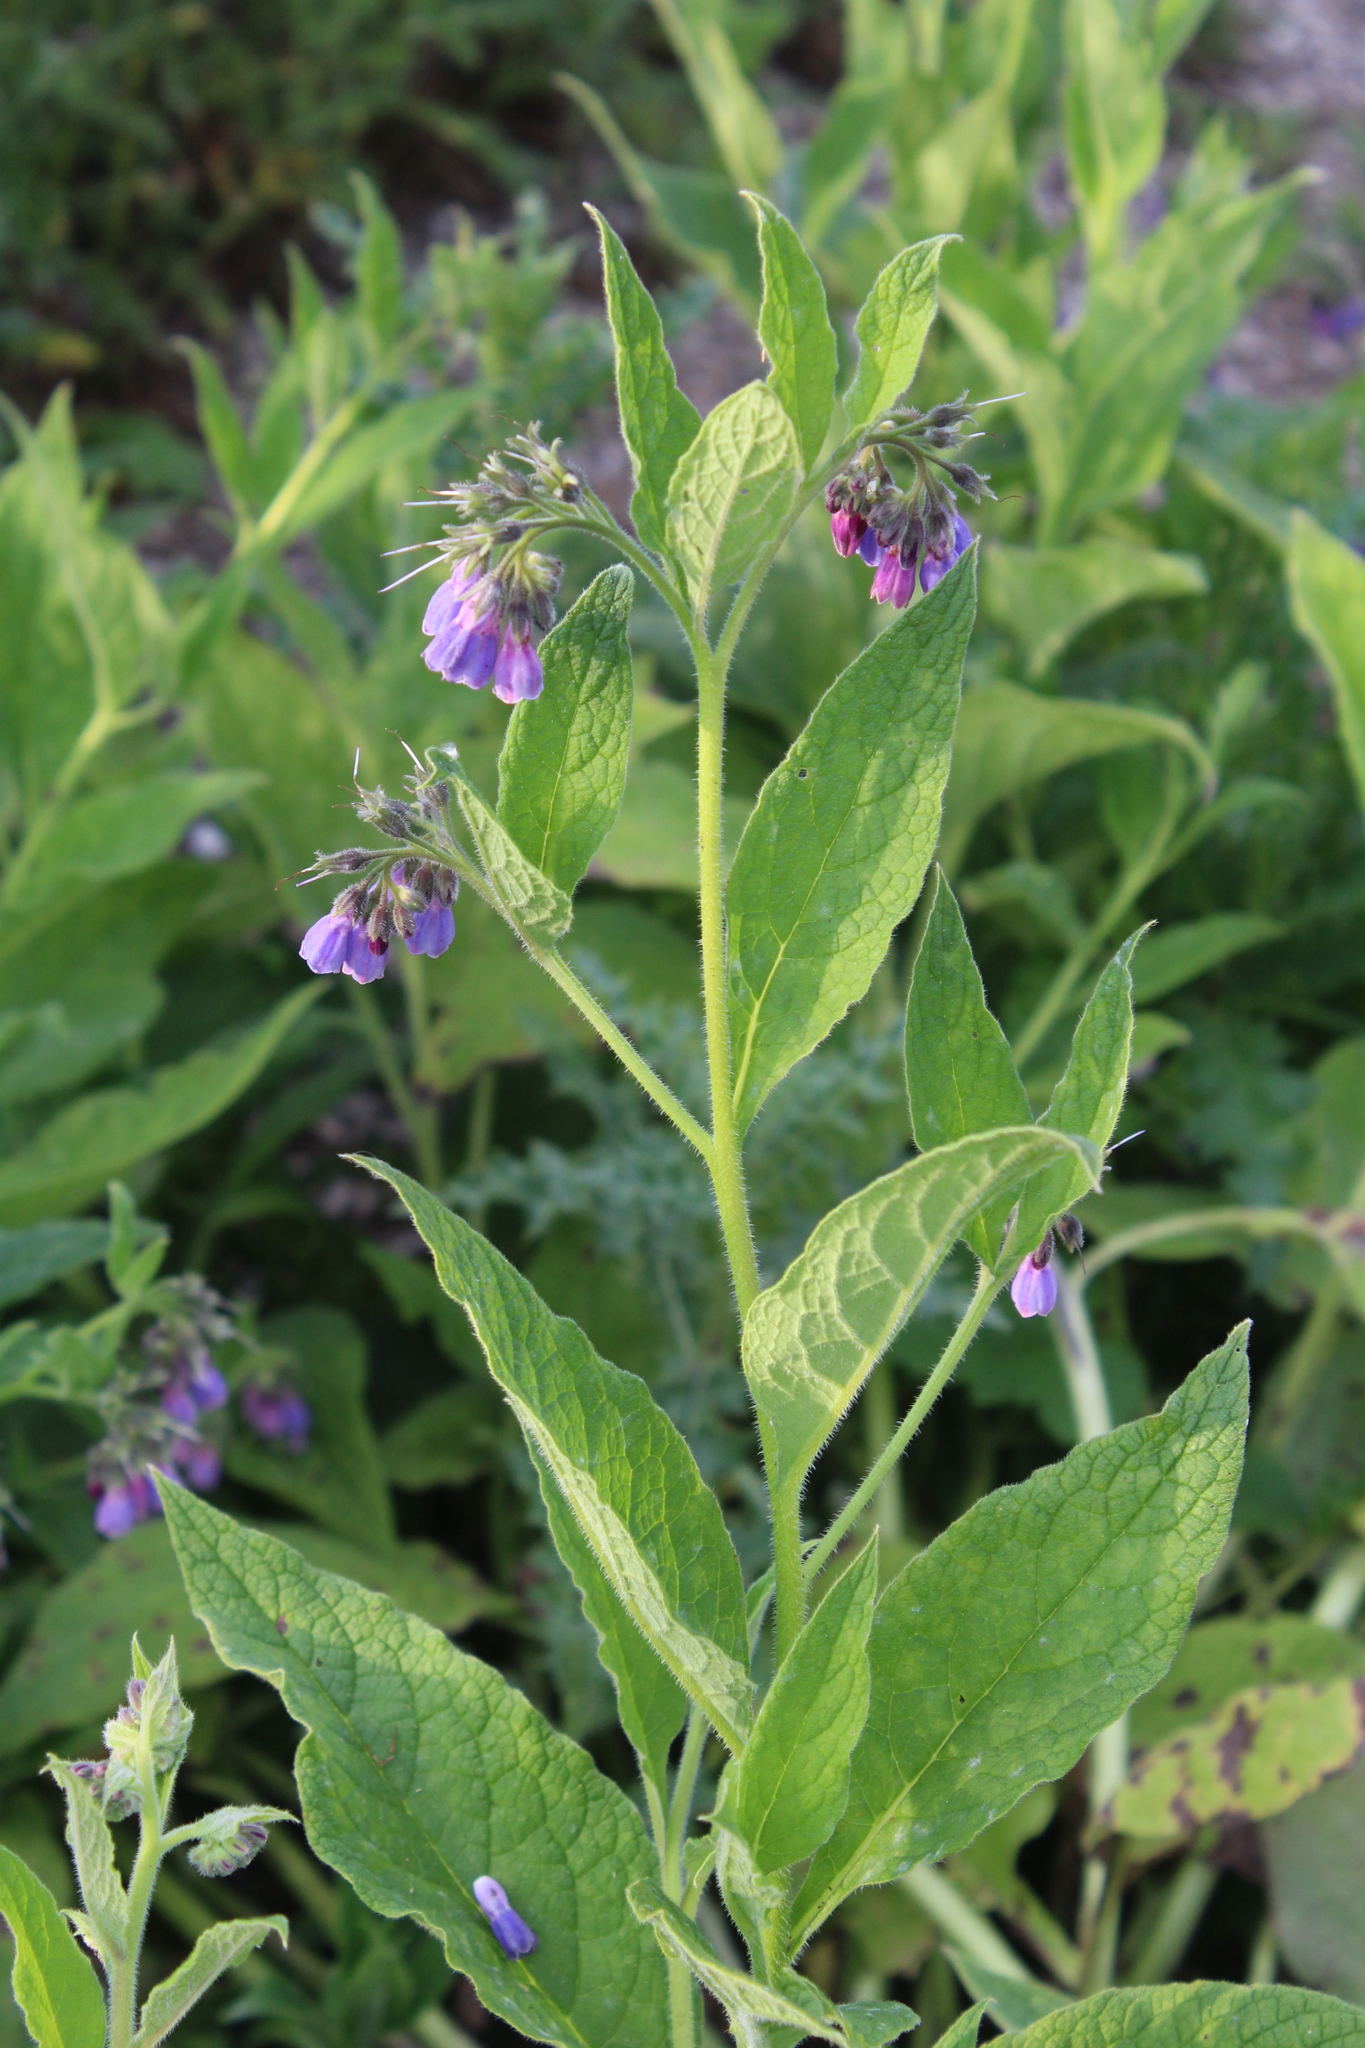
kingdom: Plantae
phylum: Tracheophyta
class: Magnoliopsida
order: Boraginales
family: Boraginaceae
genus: Symphytum
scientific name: Symphytum uplandicum
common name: Russian comfrey
